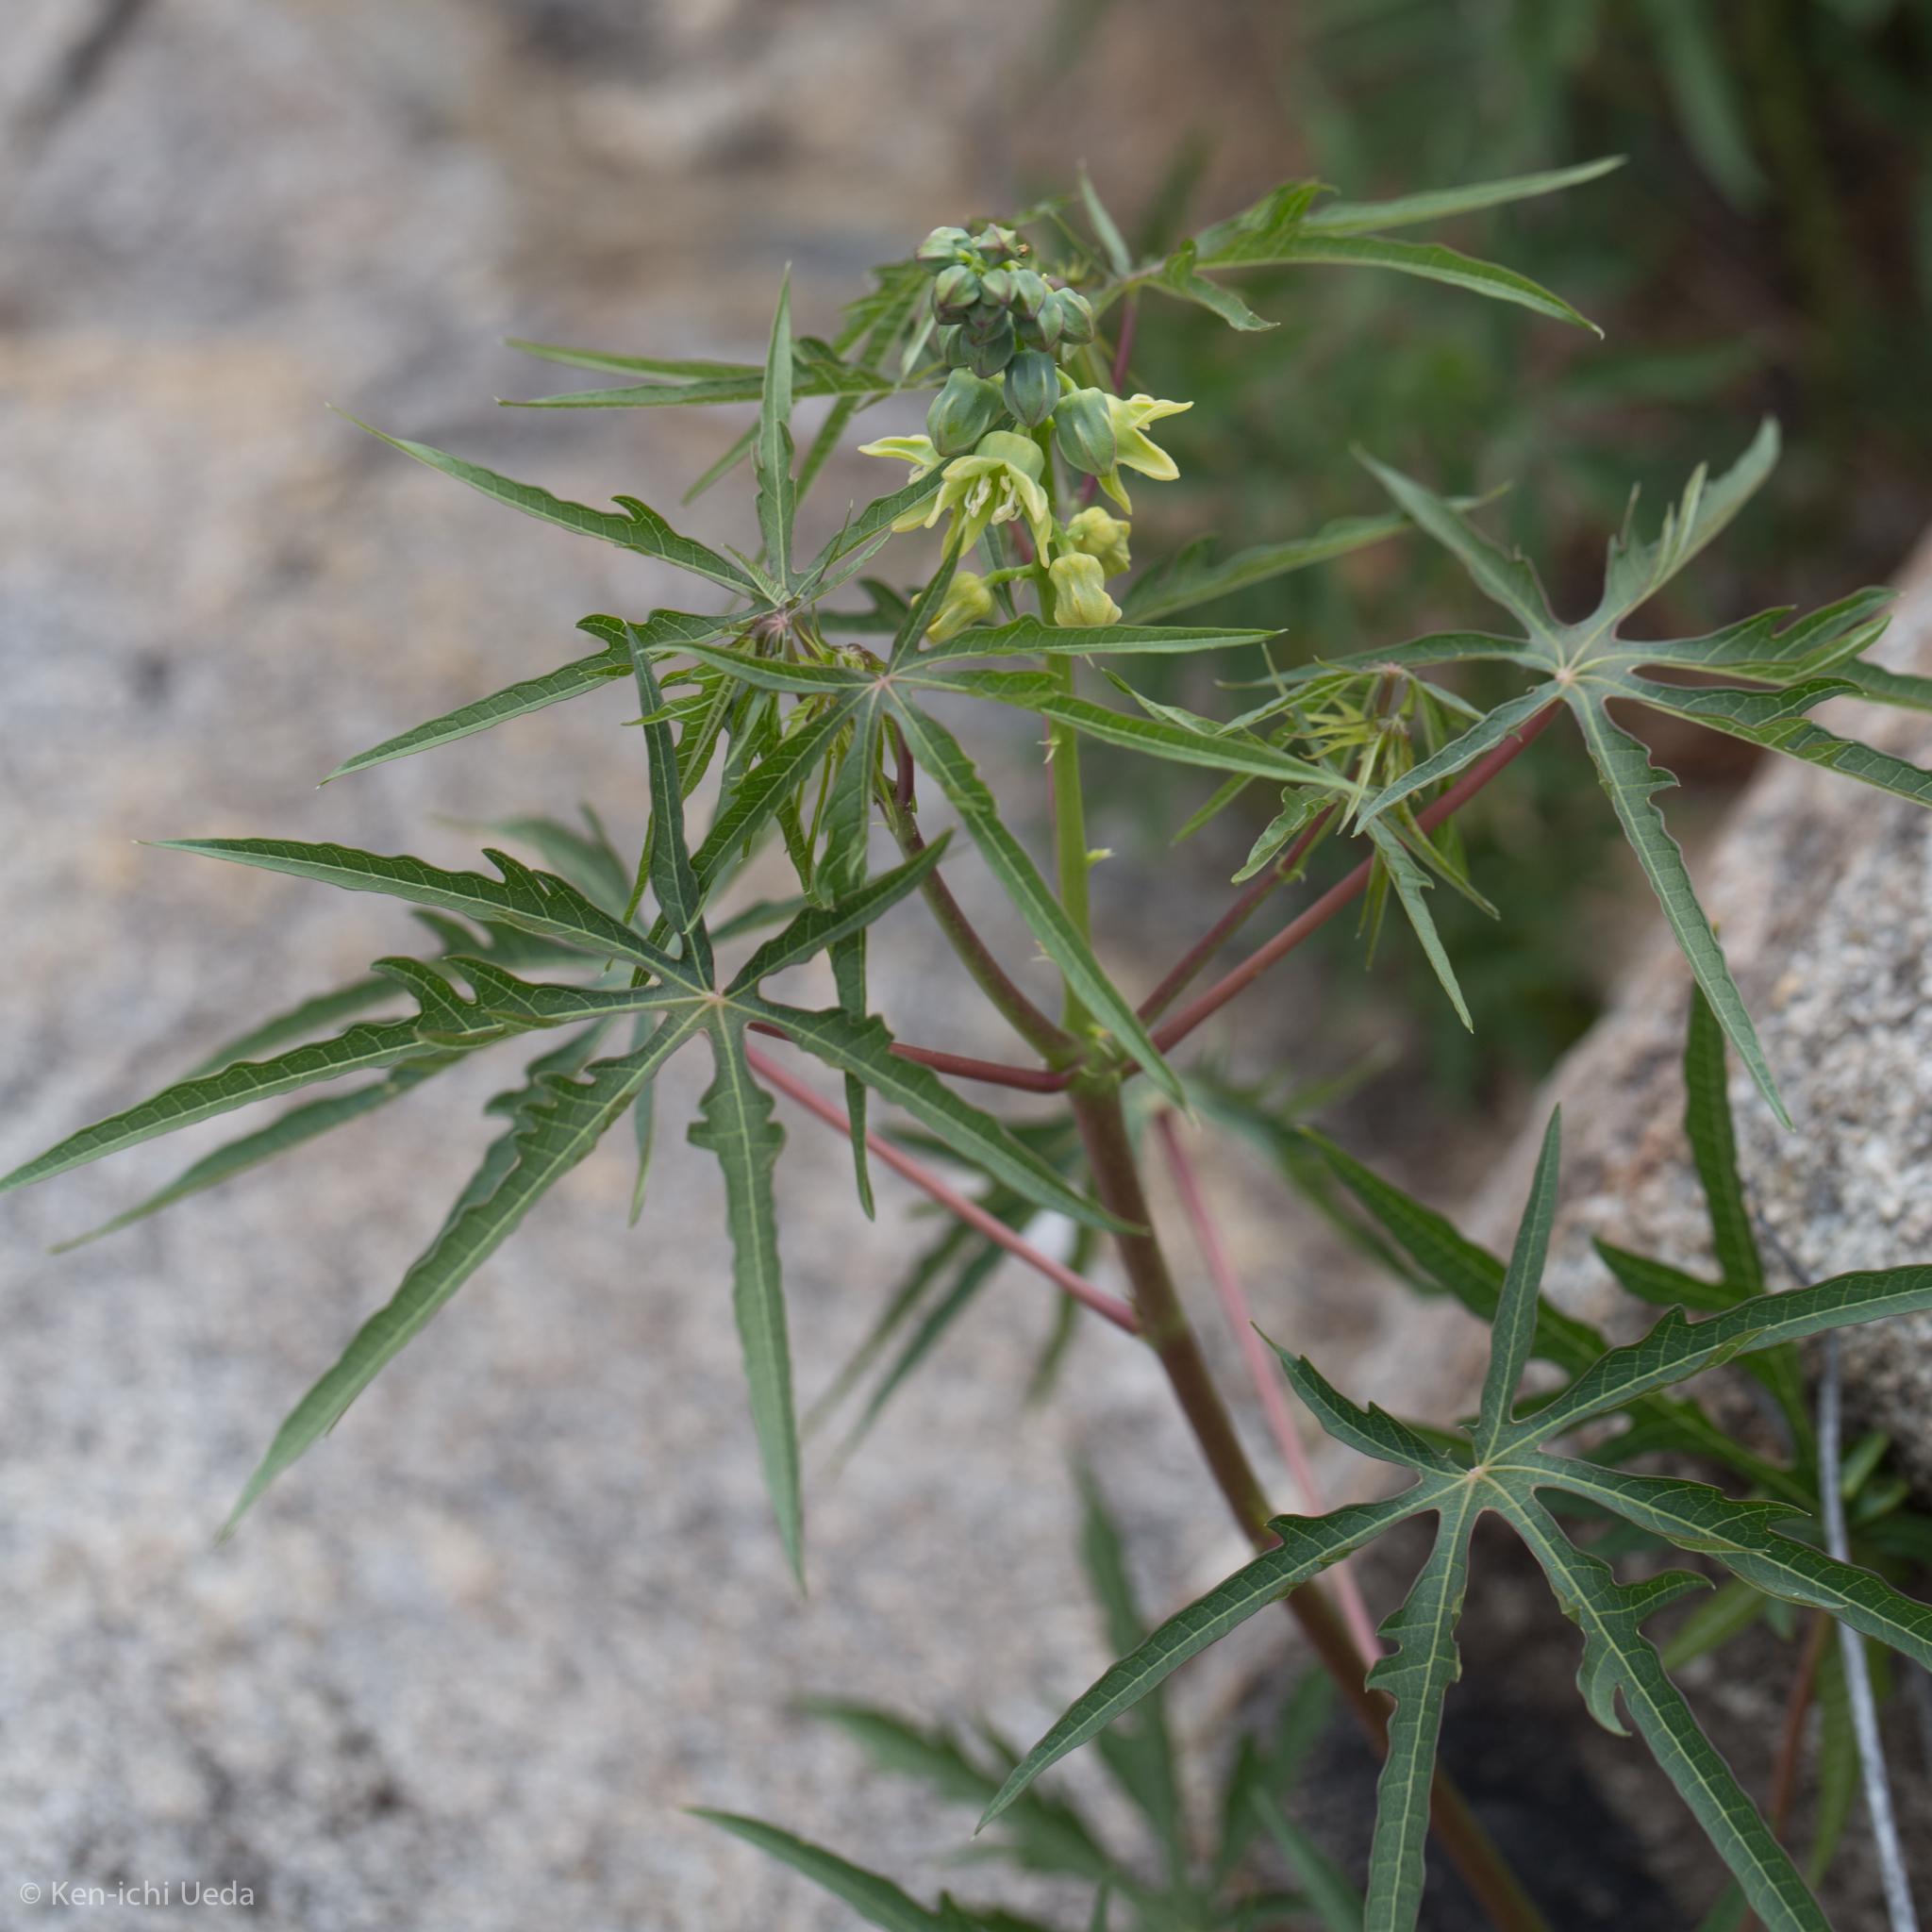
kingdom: Plantae
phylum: Tracheophyta
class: Magnoliopsida
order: Malpighiales
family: Euphorbiaceae
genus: Manihot
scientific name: Manihot angustiloba
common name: Desert mountain manihot
